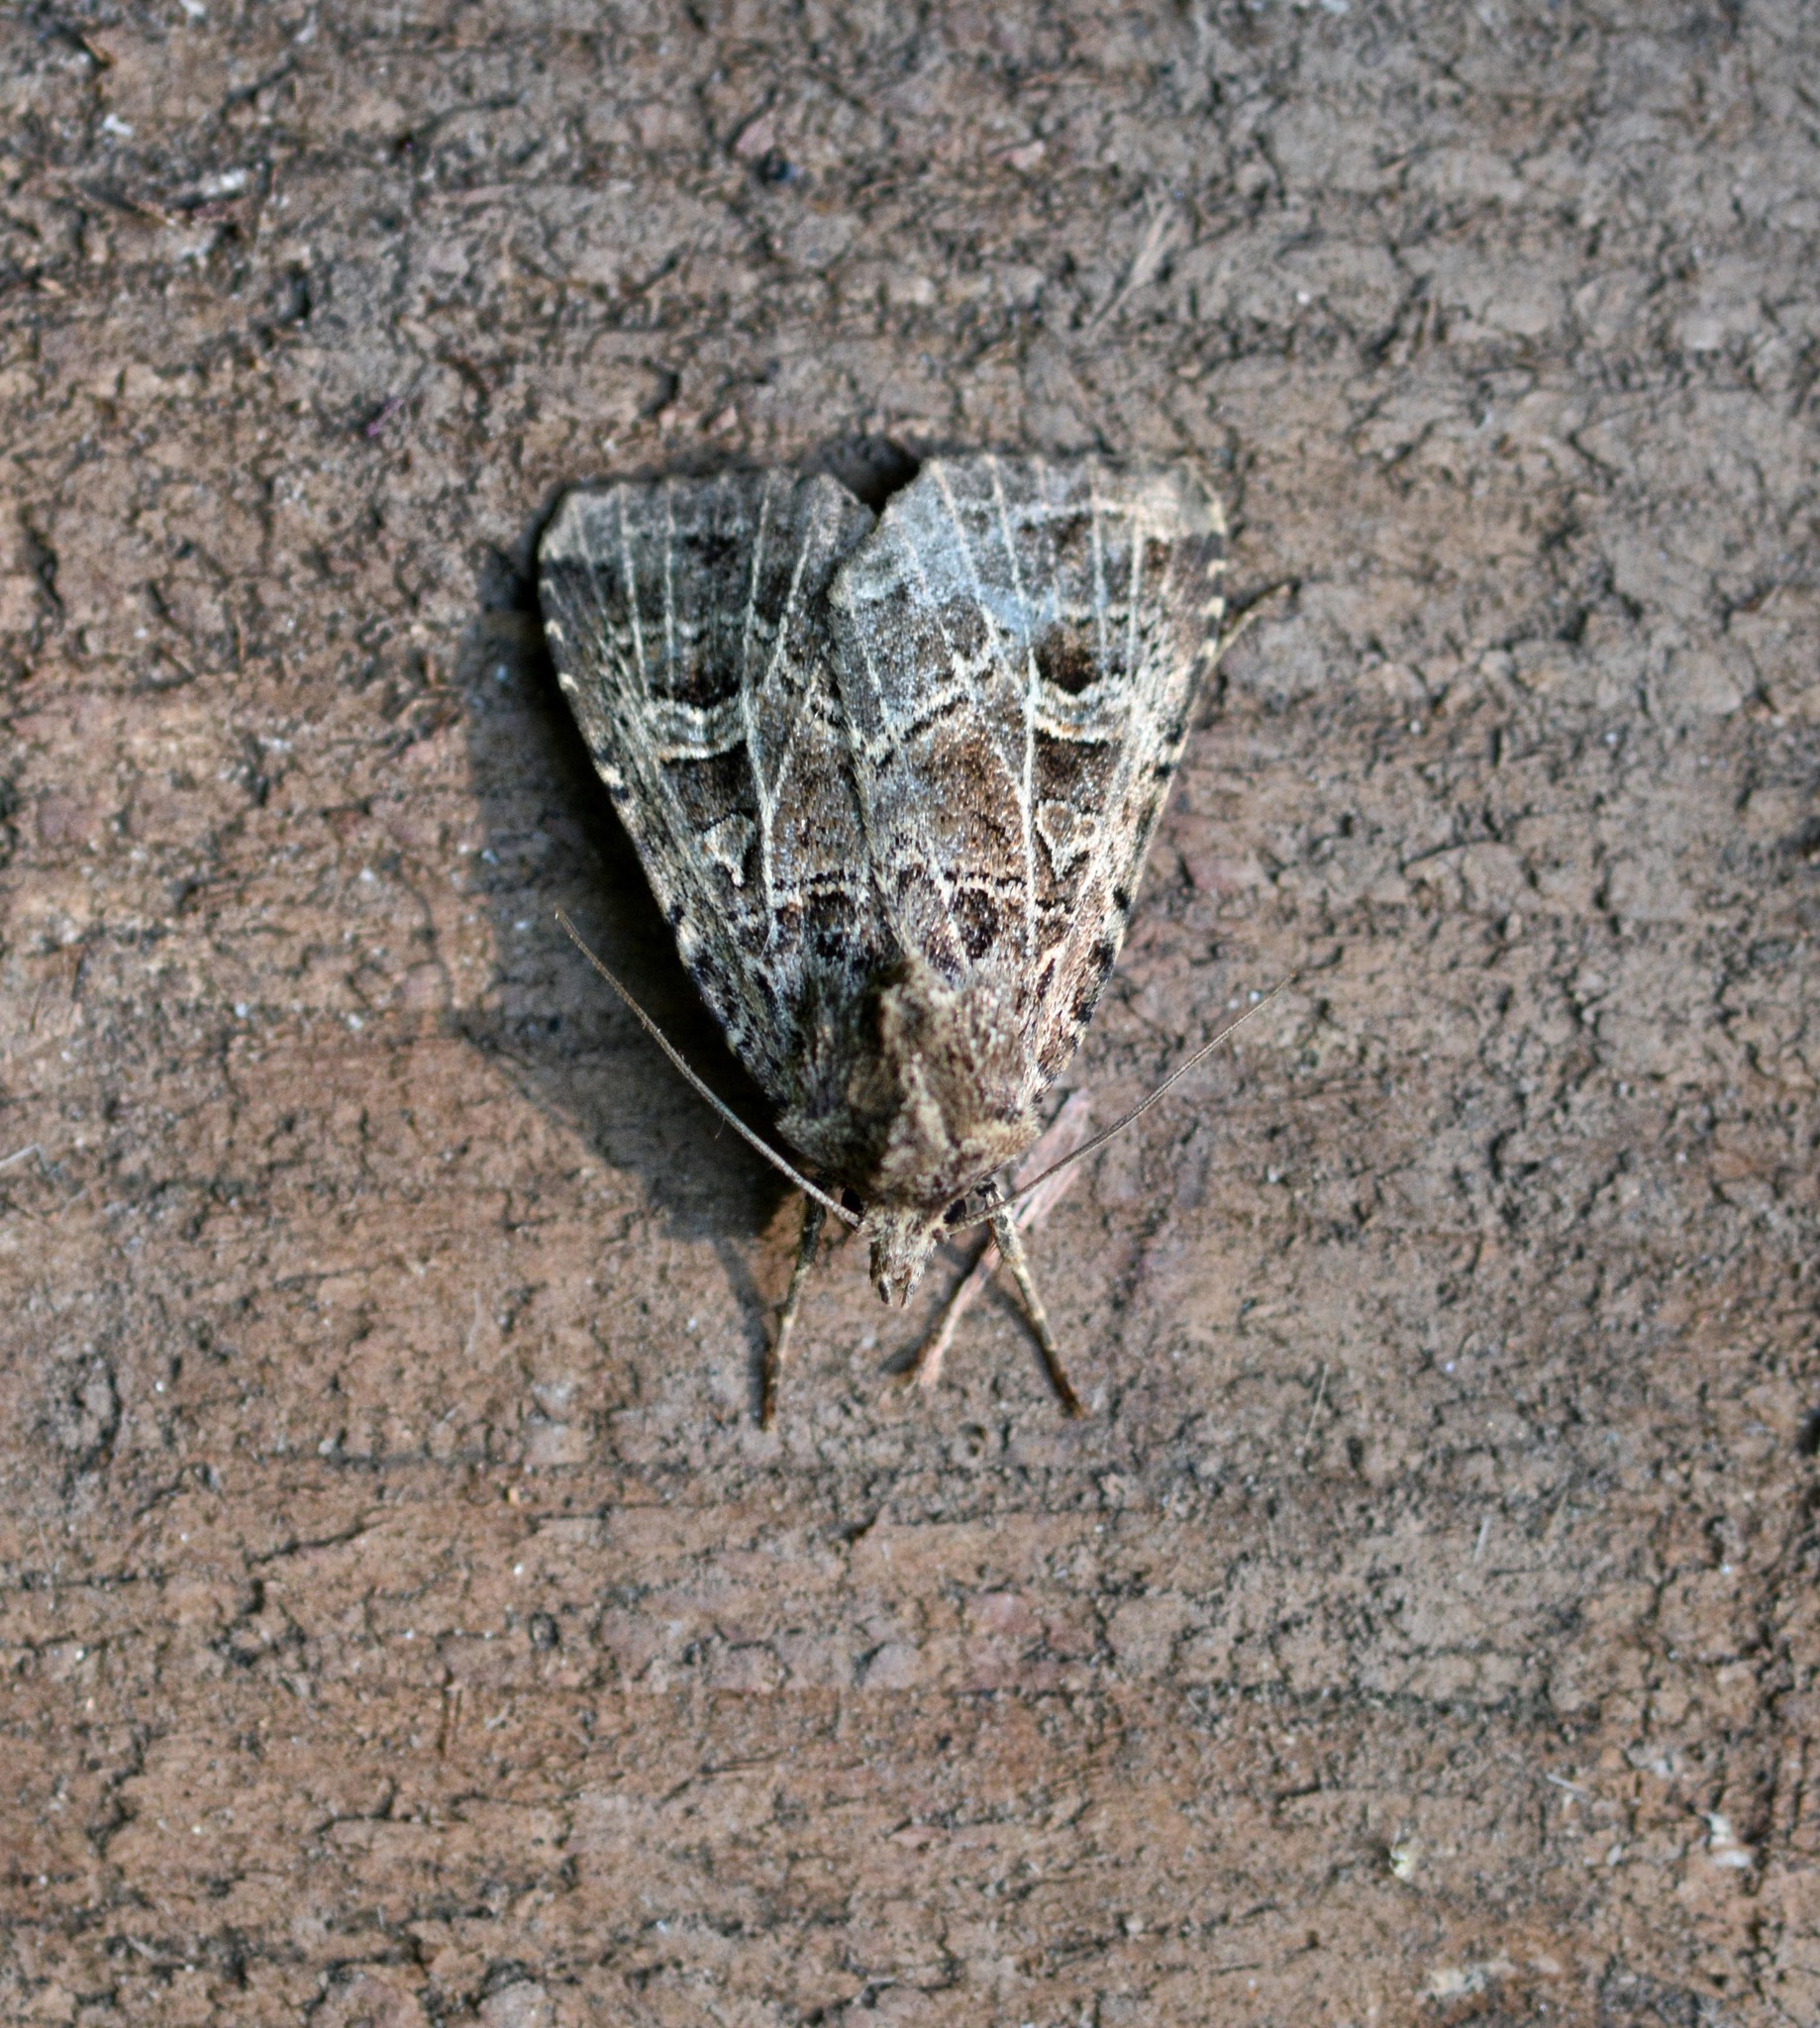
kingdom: Animalia
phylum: Arthropoda
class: Insecta
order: Lepidoptera
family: Noctuidae
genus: Naenia
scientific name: Naenia typica
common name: Gothic
